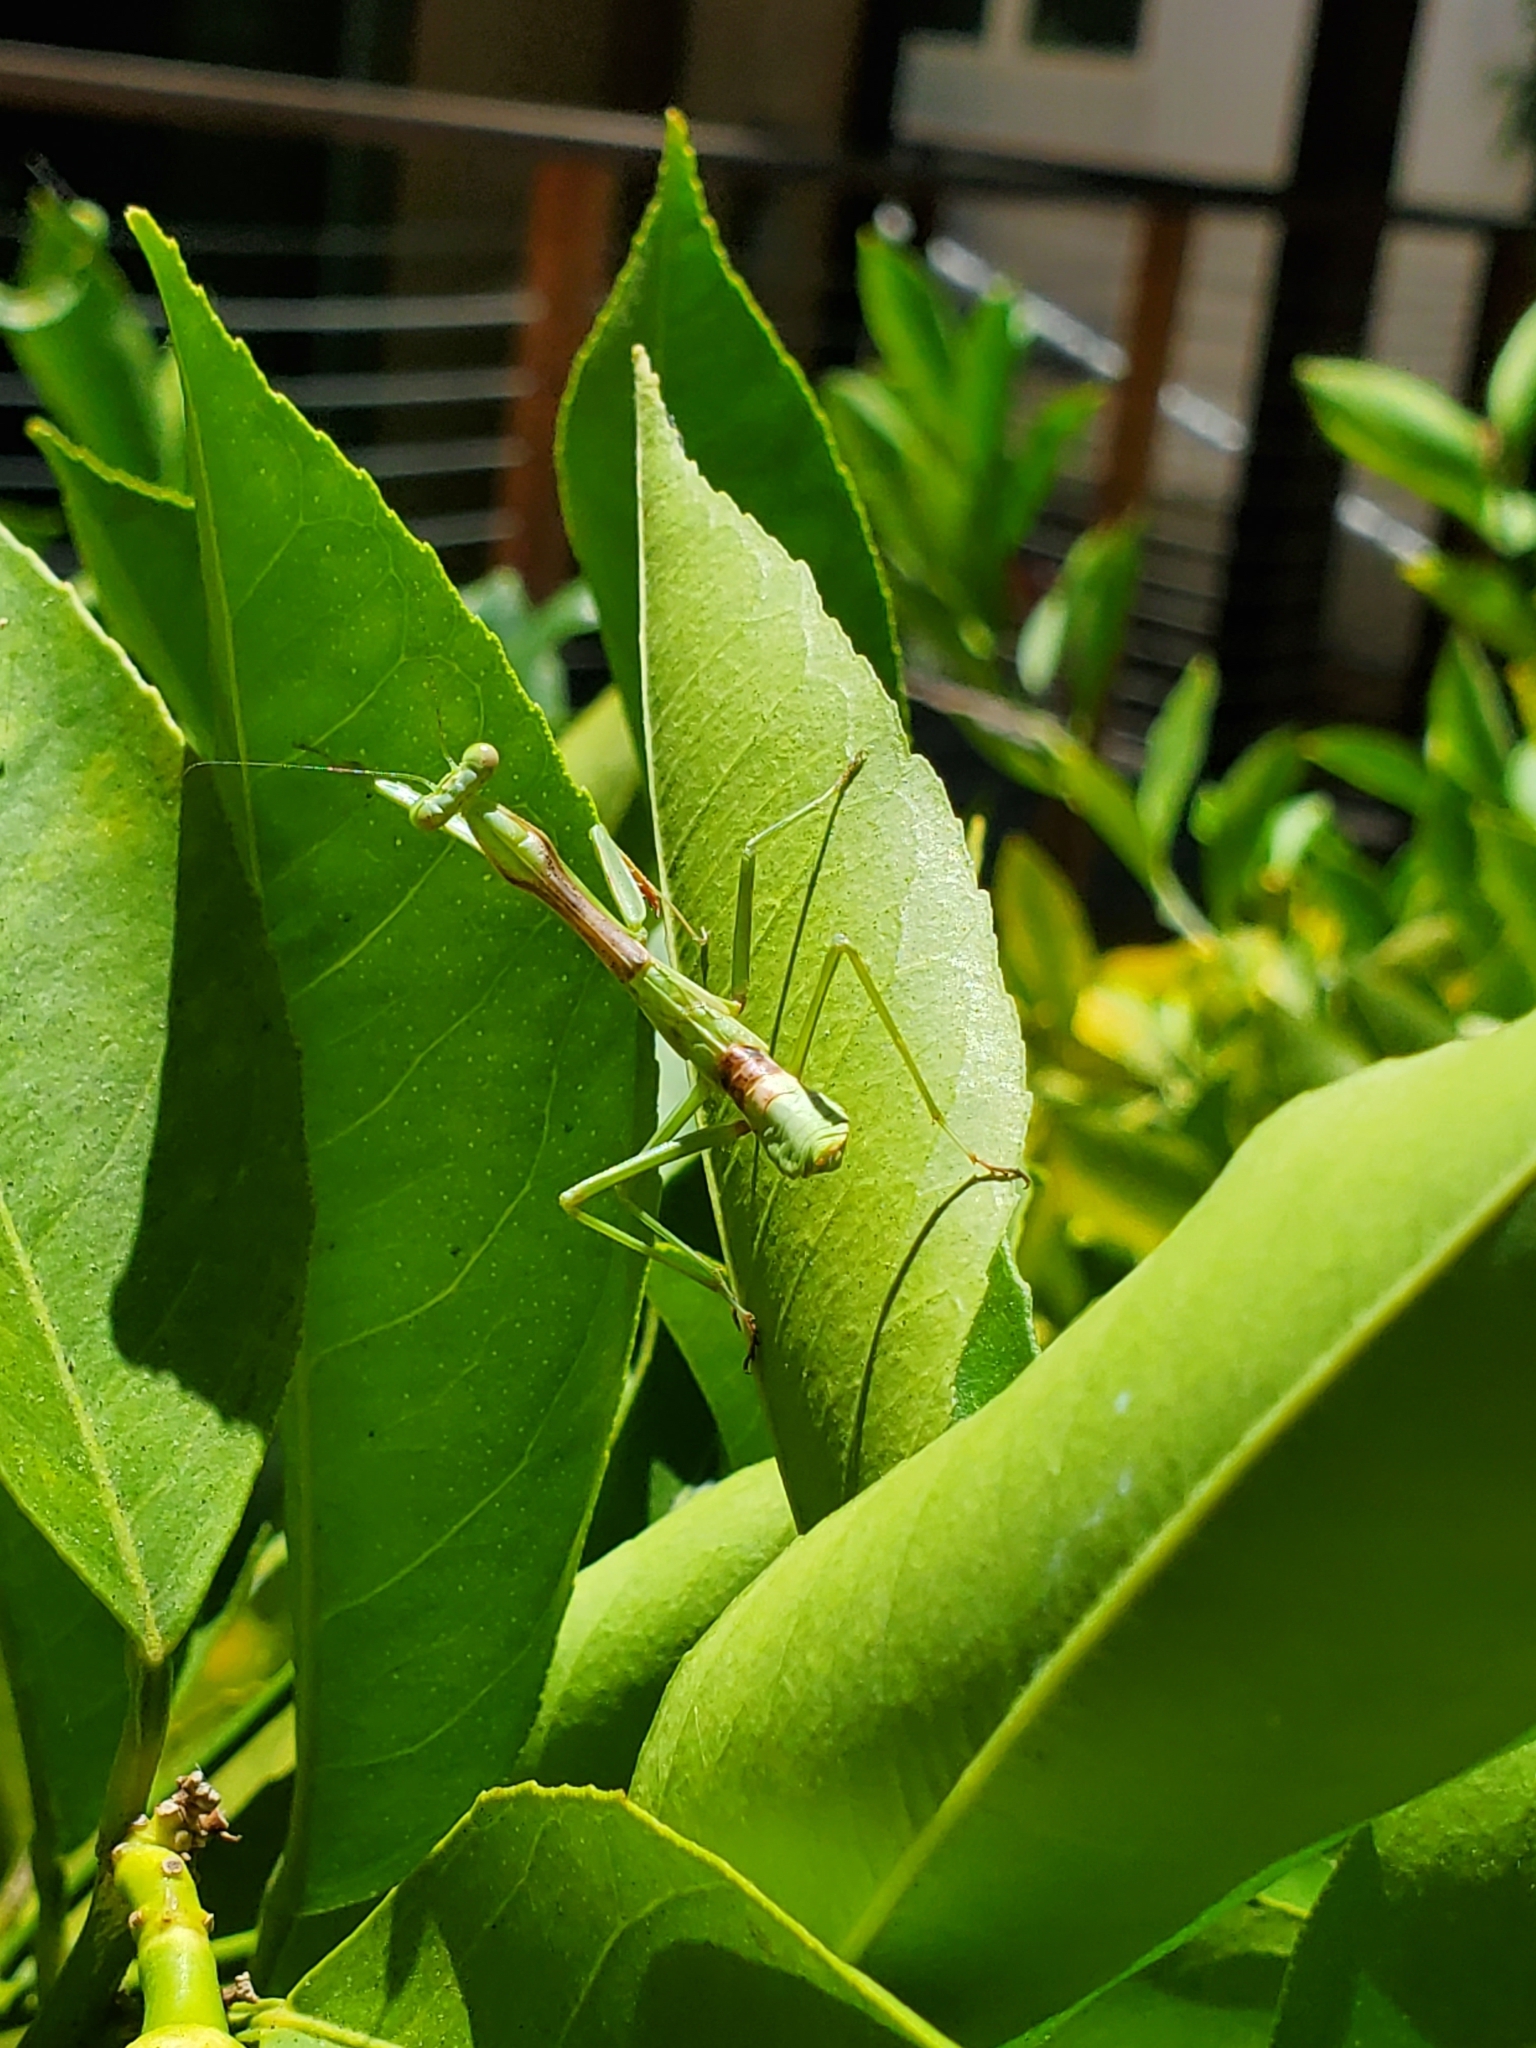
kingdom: Animalia
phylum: Arthropoda
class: Insecta
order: Mantodea
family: Mantidae
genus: Stagmomantis
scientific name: Stagmomantis limbata
